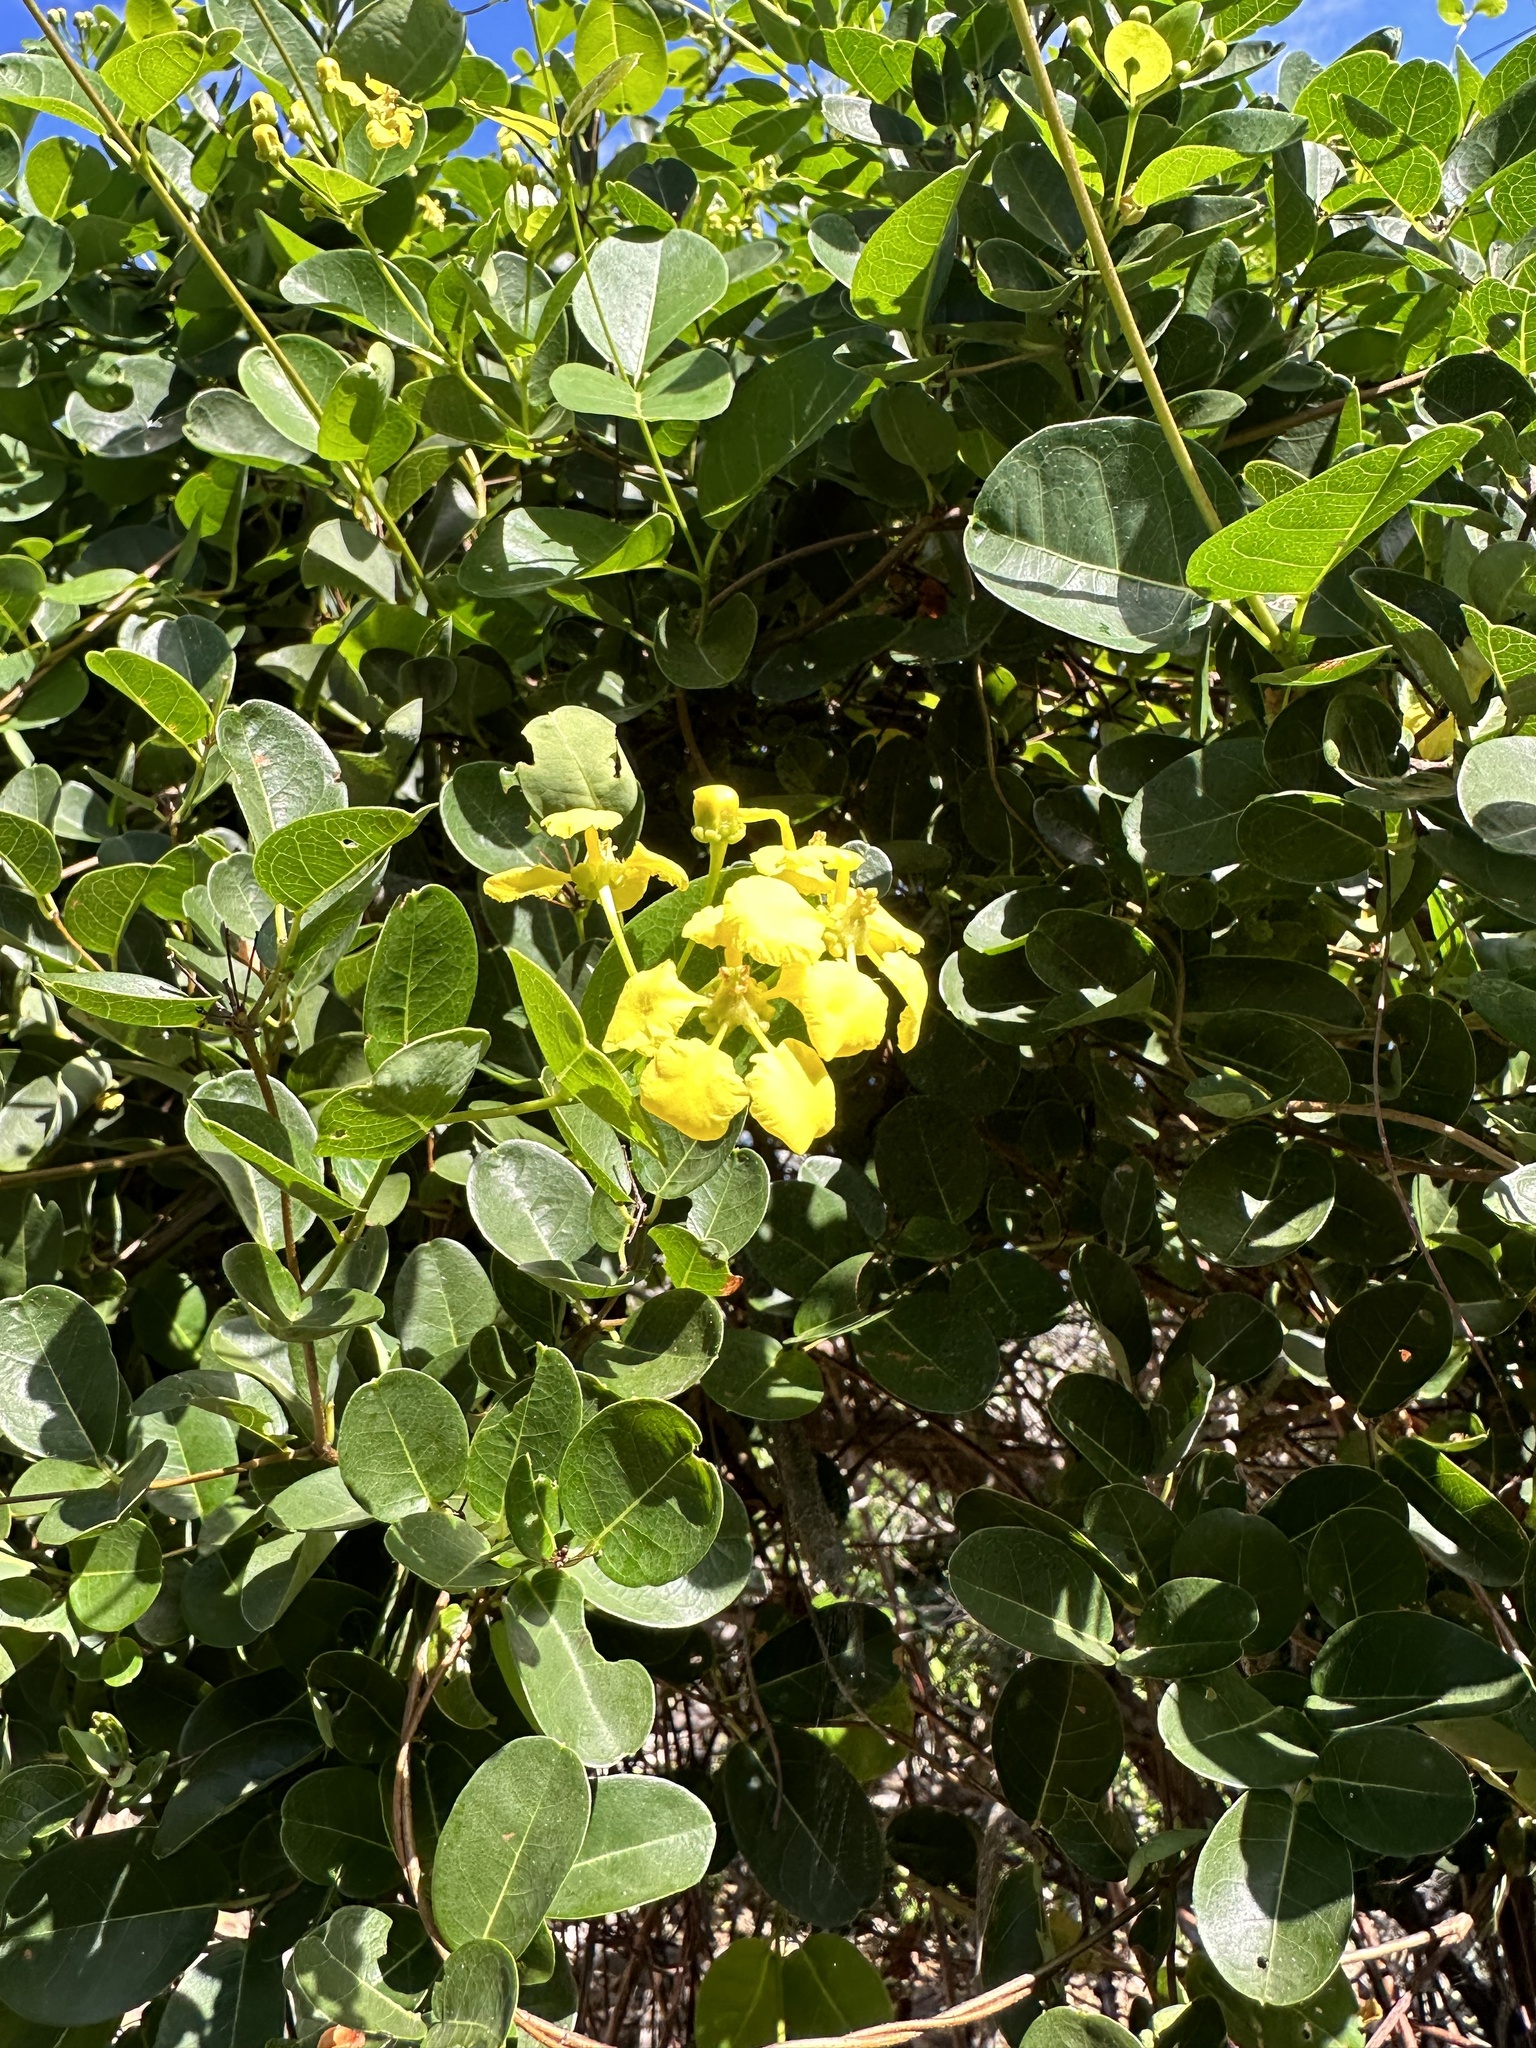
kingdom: Plantae
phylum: Tracheophyta
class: Magnoliopsida
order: Malpighiales
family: Malpighiaceae
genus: Stigmaphyllon
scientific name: Stigmaphyllon emarginatum
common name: Monarch amazonvine
